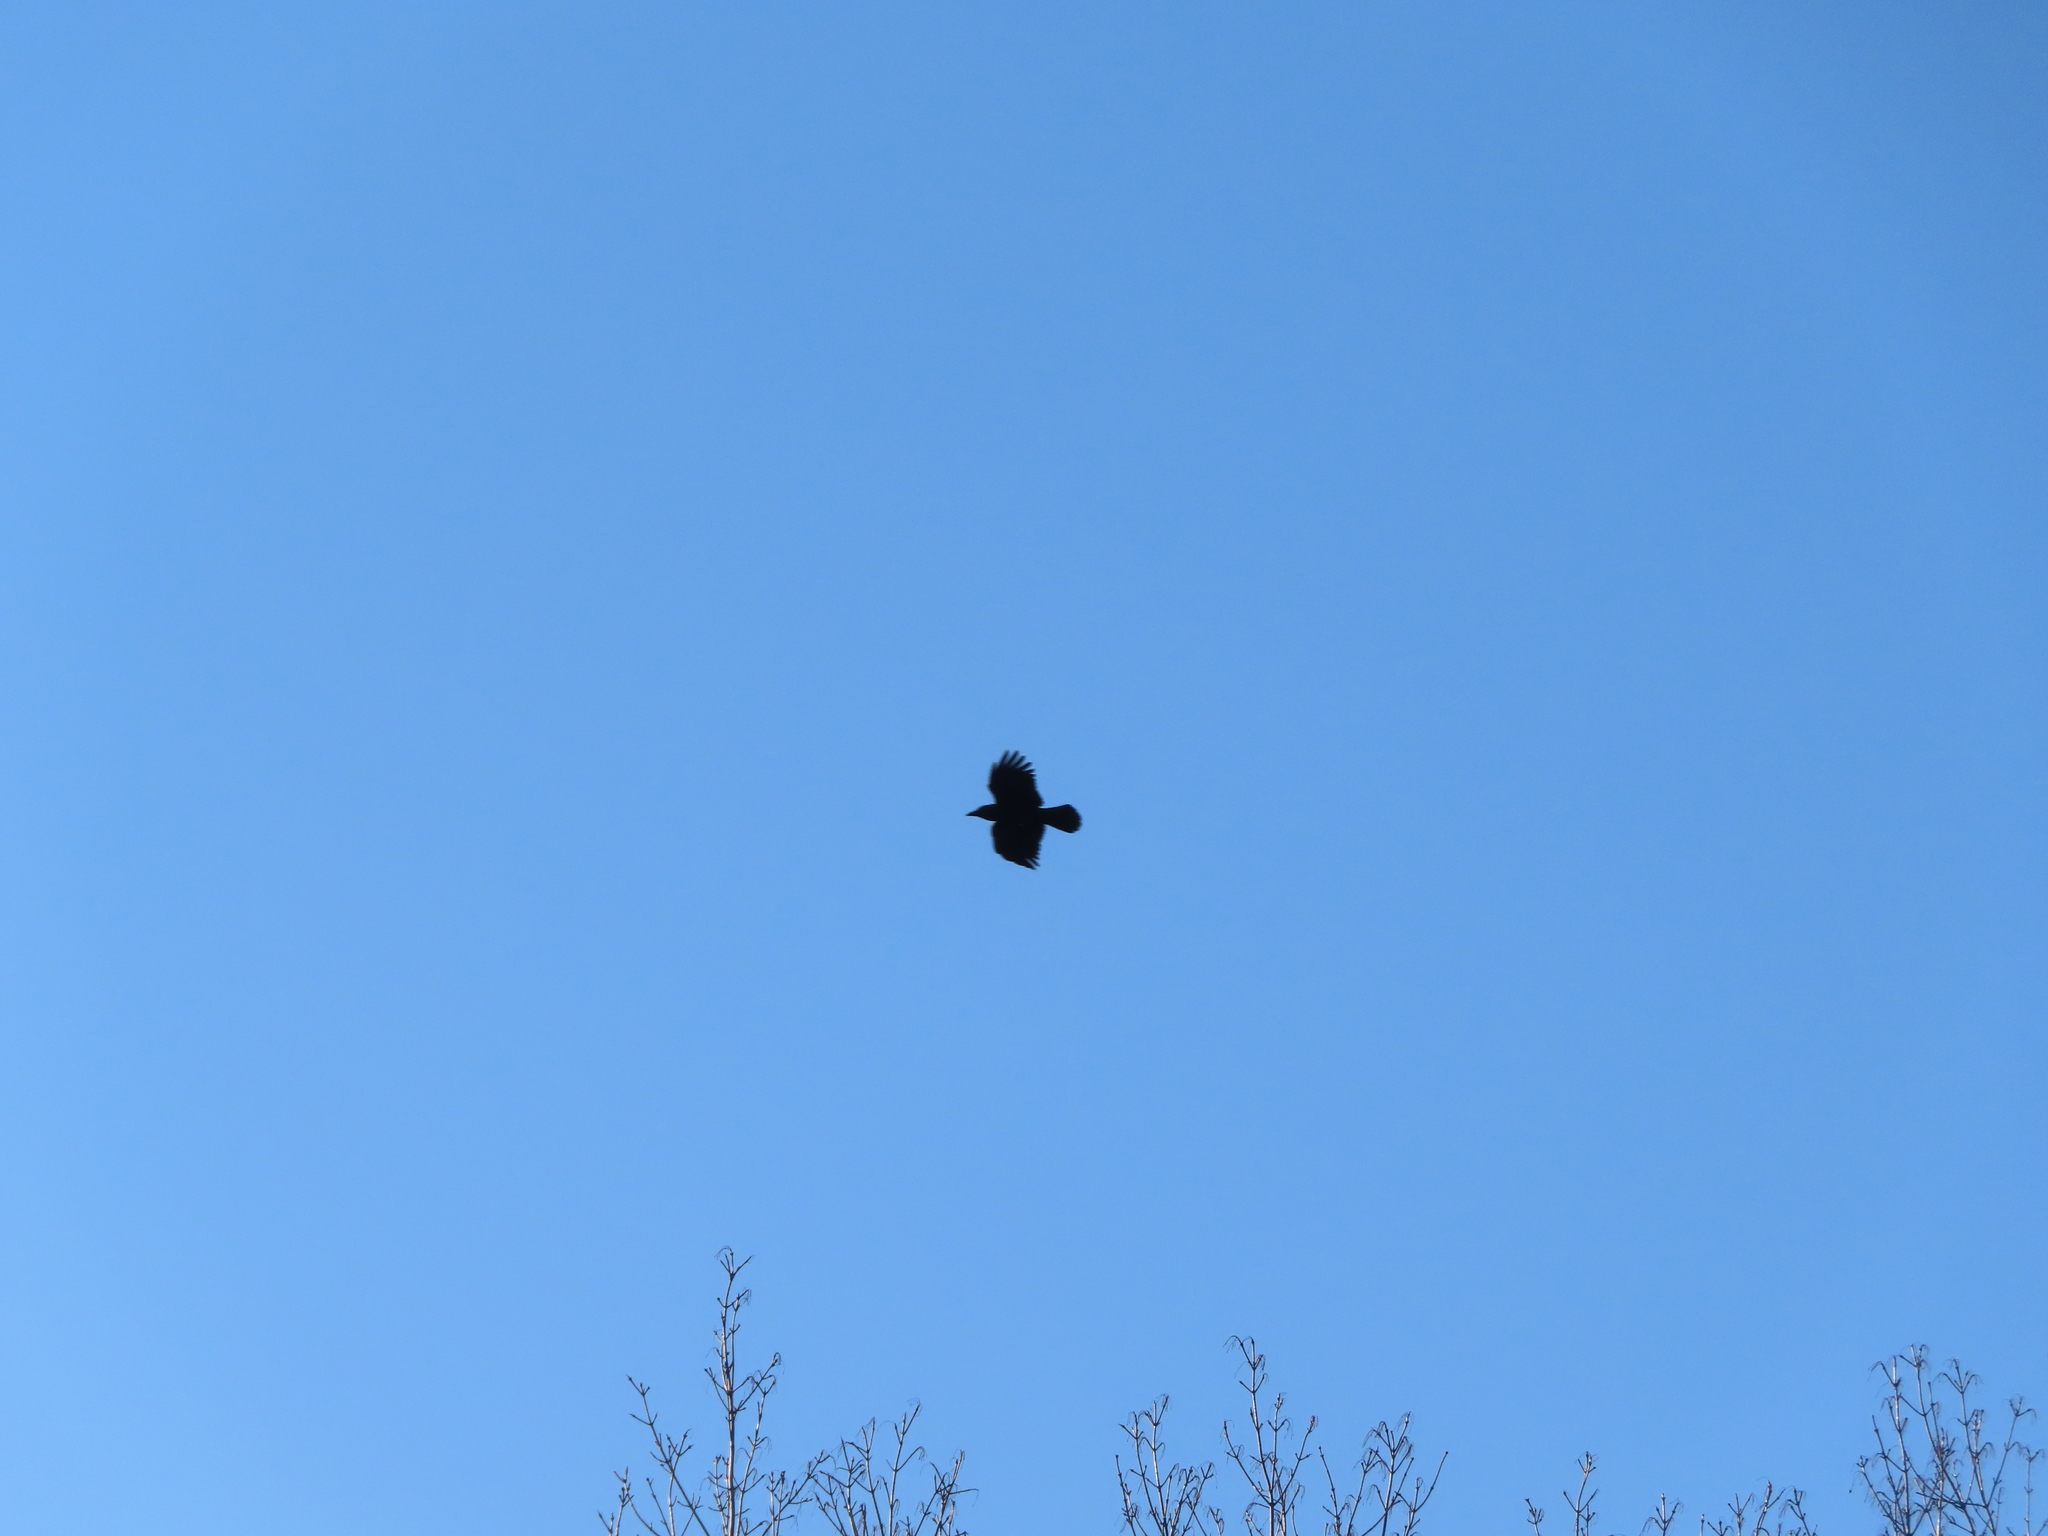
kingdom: Animalia
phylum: Chordata
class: Aves
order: Passeriformes
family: Corvidae
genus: Corvus
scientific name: Corvus brachyrhynchos
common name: American crow
